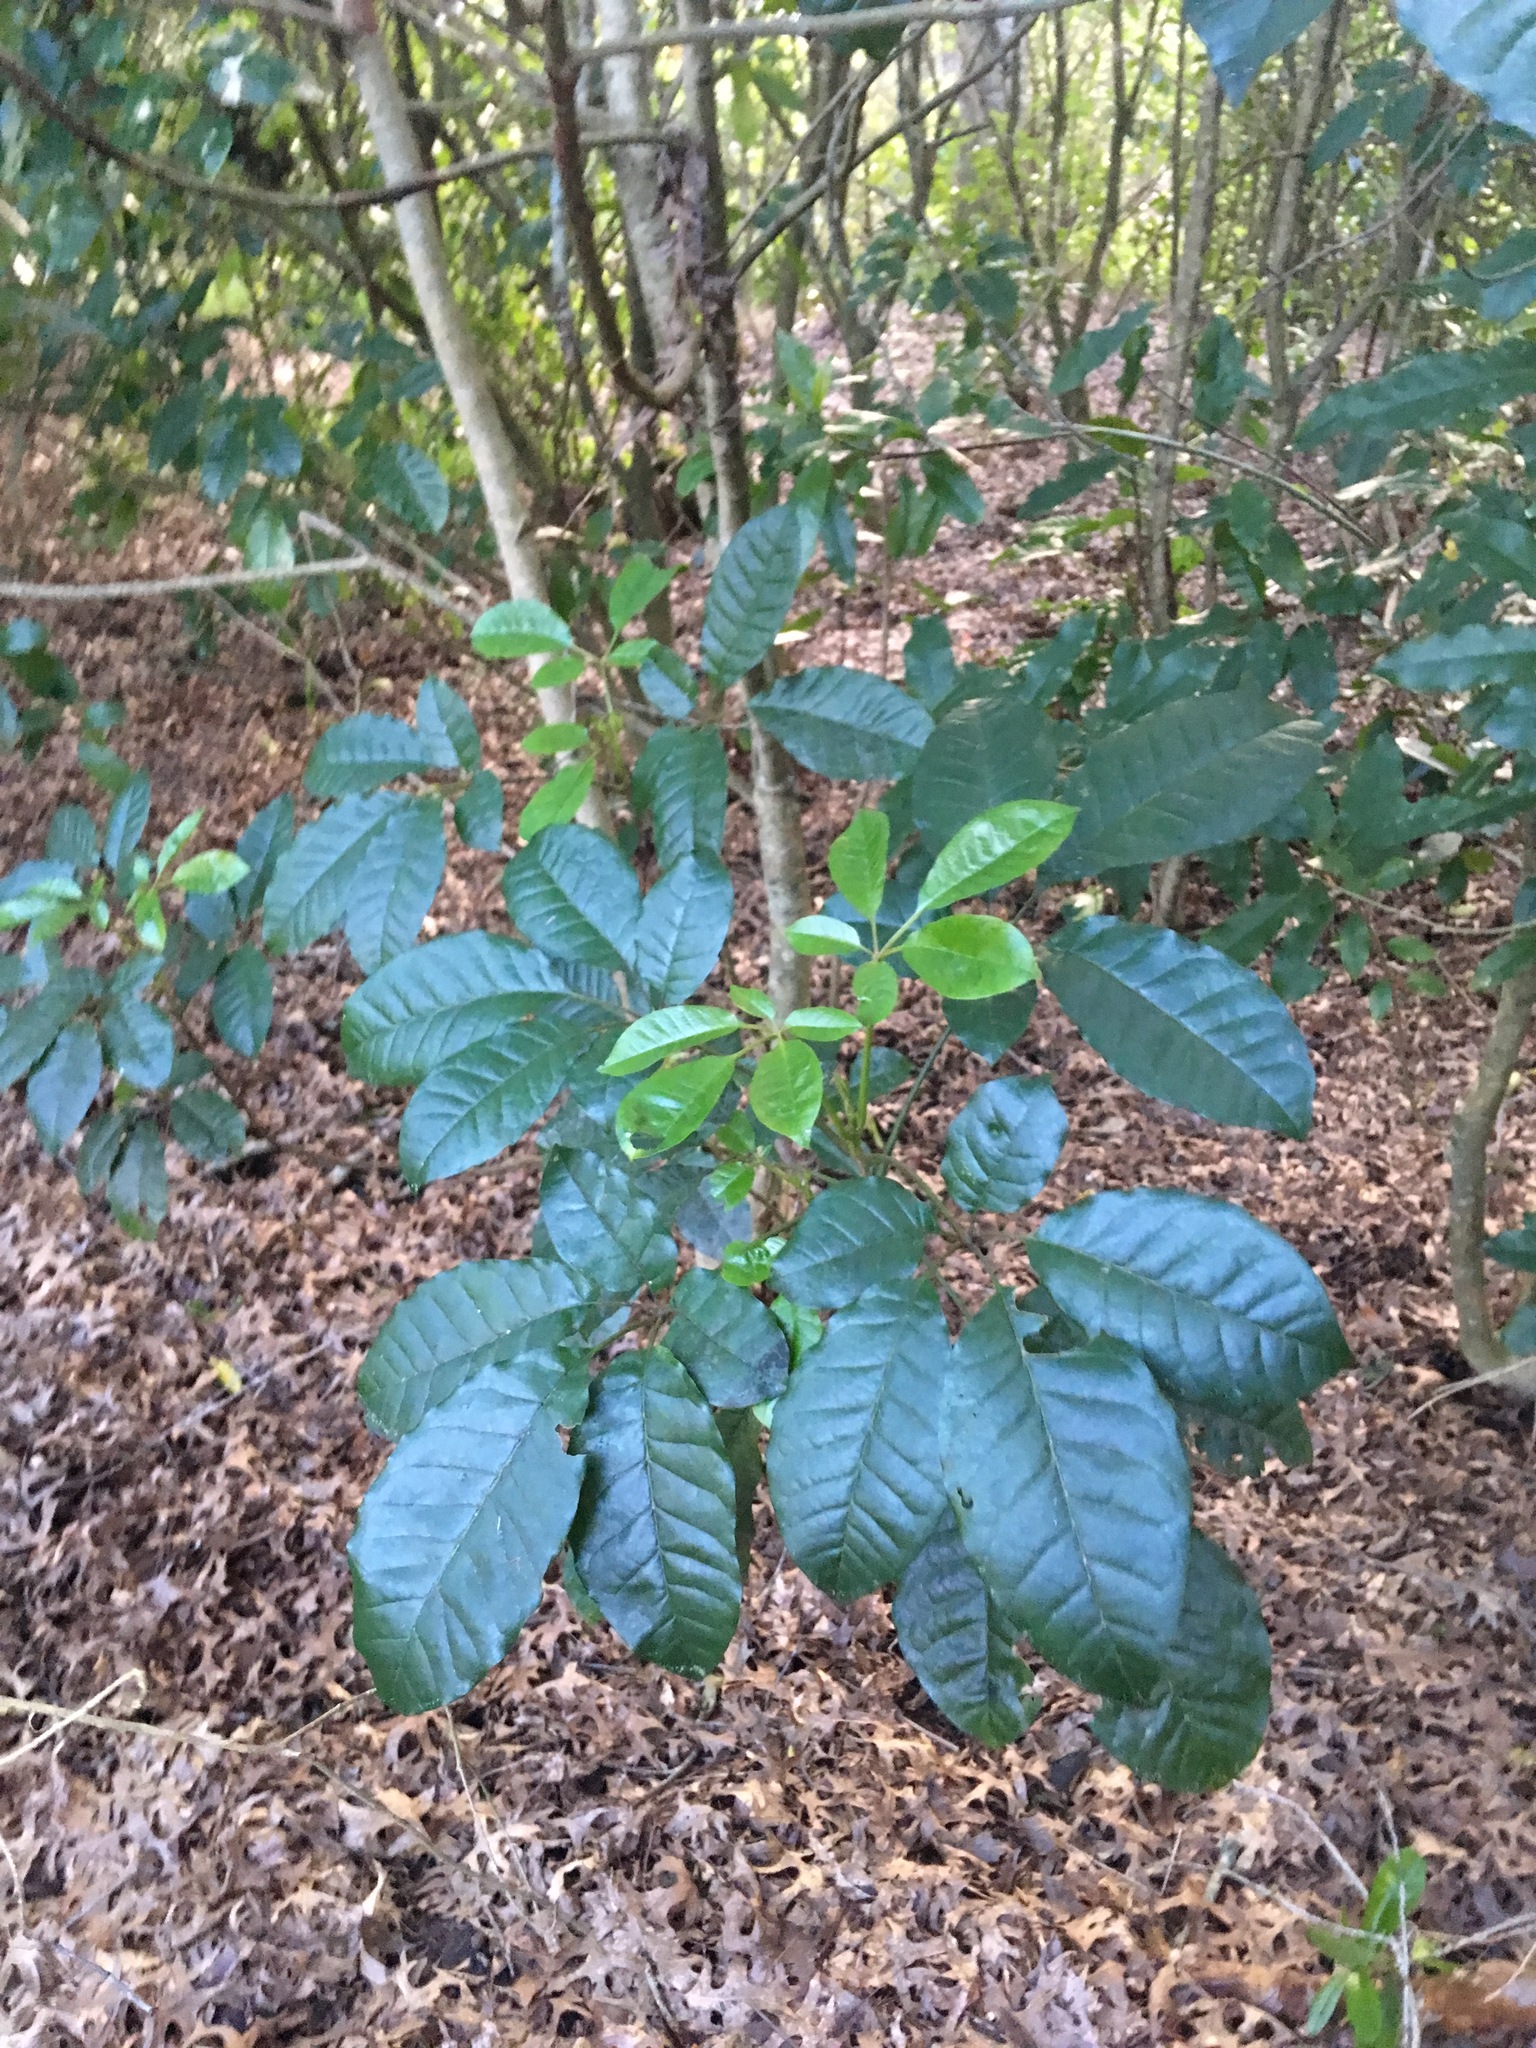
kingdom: Plantae
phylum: Tracheophyta
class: Magnoliopsida
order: Lamiales
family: Lamiaceae
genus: Vitex
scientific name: Vitex lucens
